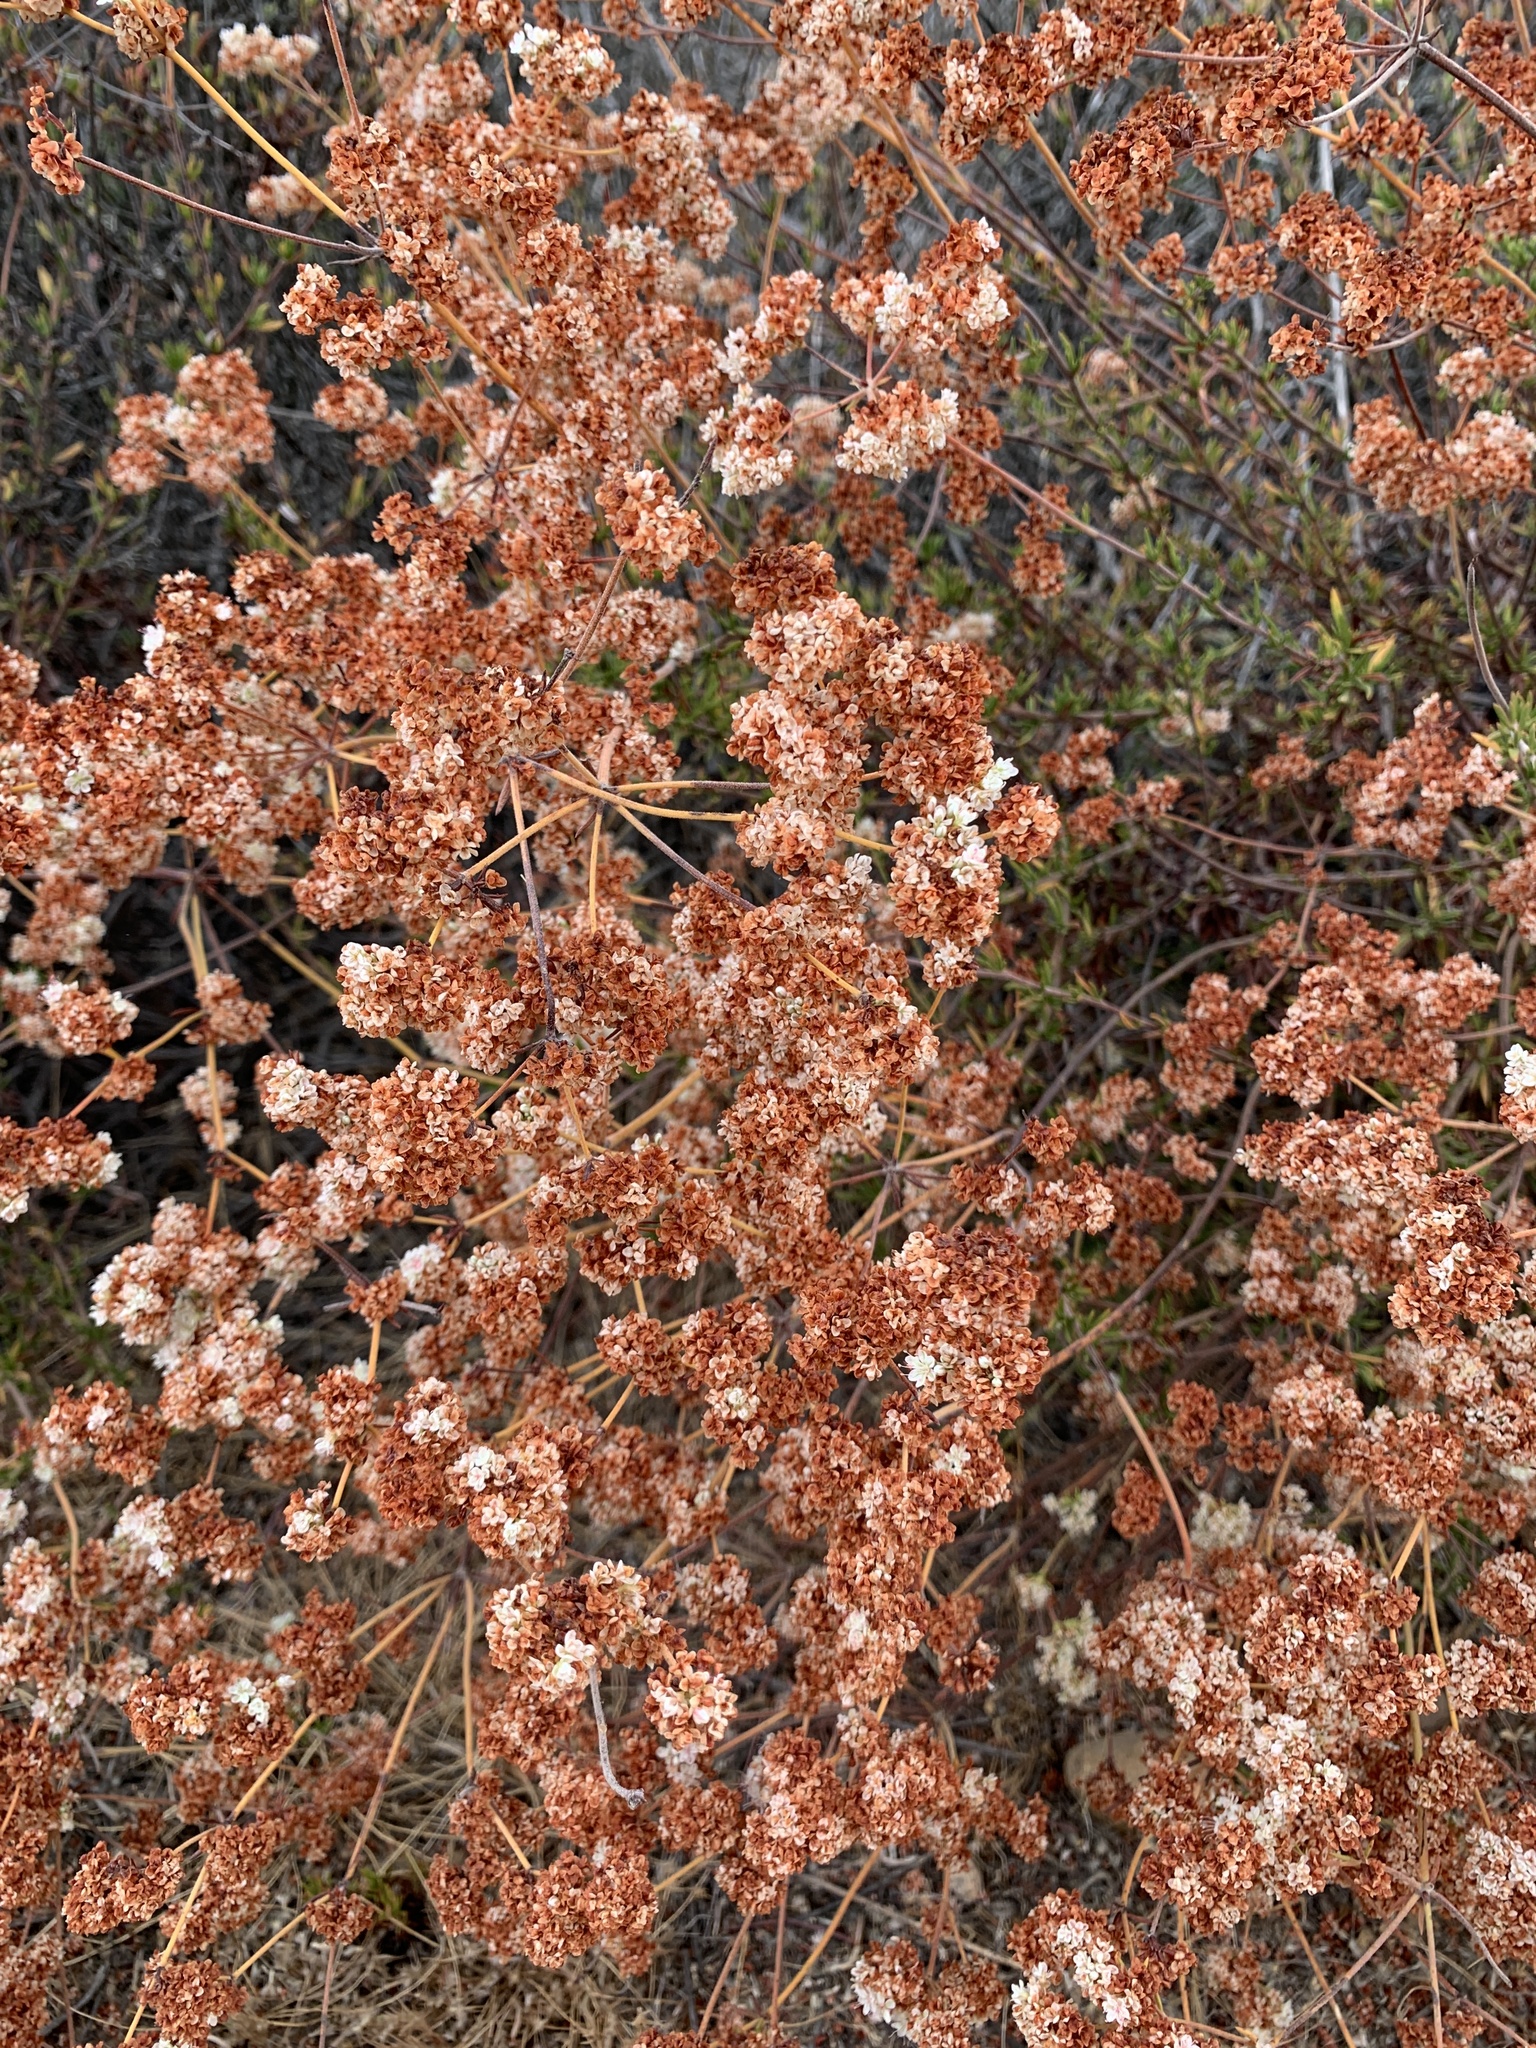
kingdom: Plantae
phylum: Tracheophyta
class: Magnoliopsida
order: Caryophyllales
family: Polygonaceae
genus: Eriogonum
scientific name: Eriogonum fasciculatum
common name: California wild buckwheat
